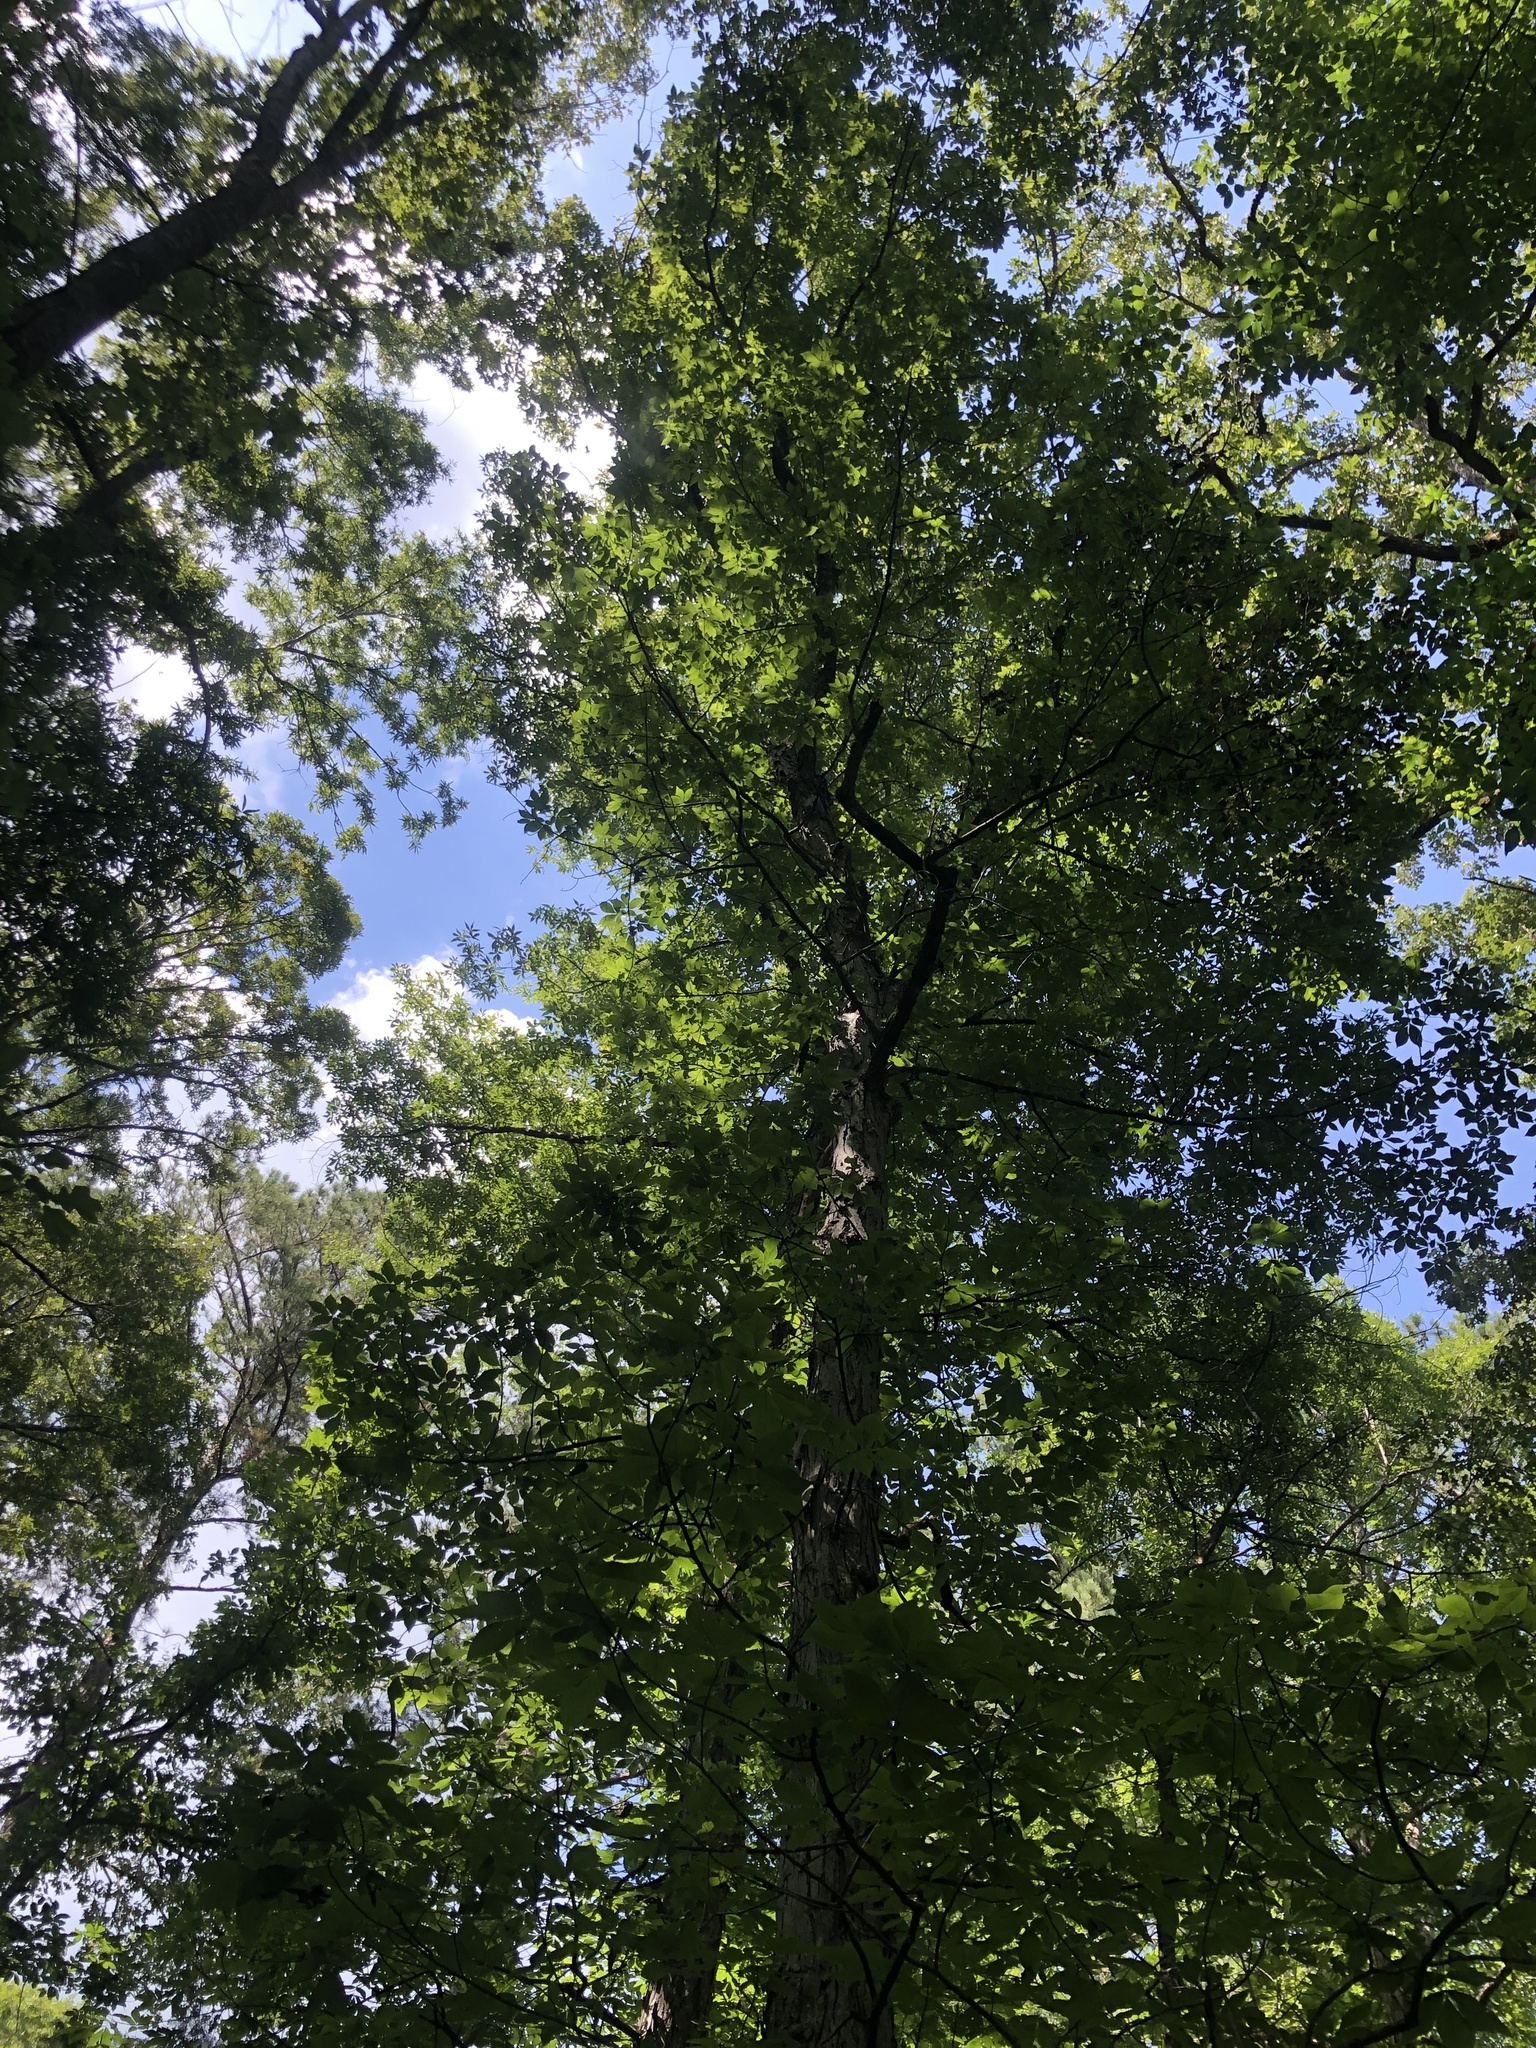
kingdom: Plantae
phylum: Tracheophyta
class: Magnoliopsida
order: Fagales
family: Juglandaceae
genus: Carya
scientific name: Carya carolinae-septentrionalis
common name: Carolina hickory
